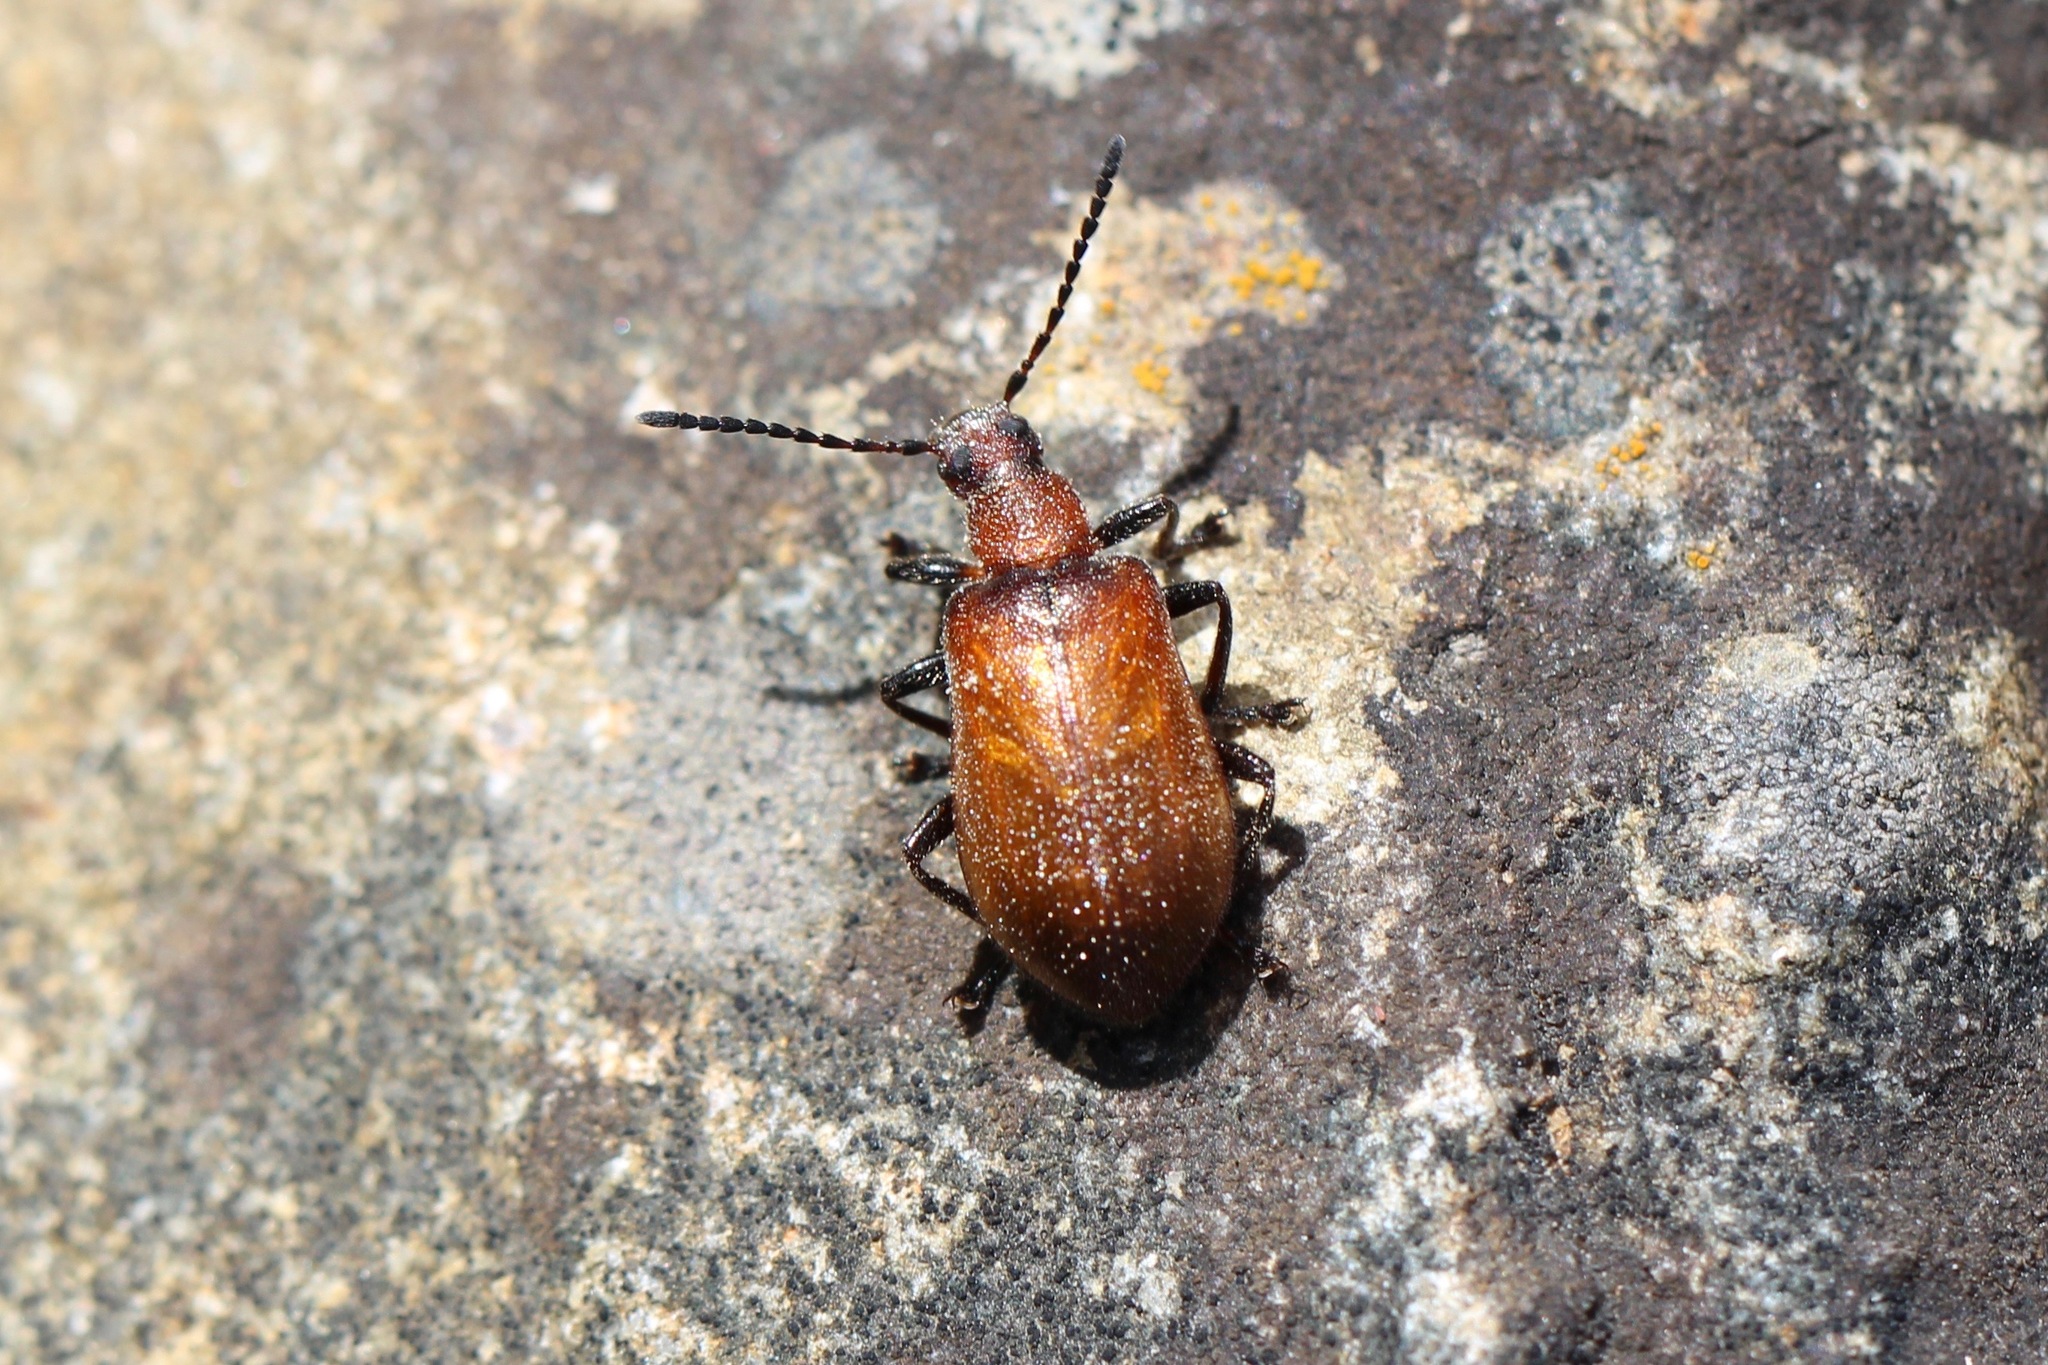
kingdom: Animalia
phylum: Arthropoda
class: Insecta
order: Coleoptera
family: Tenebrionidae
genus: Ecnolagria
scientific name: Ecnolagria
